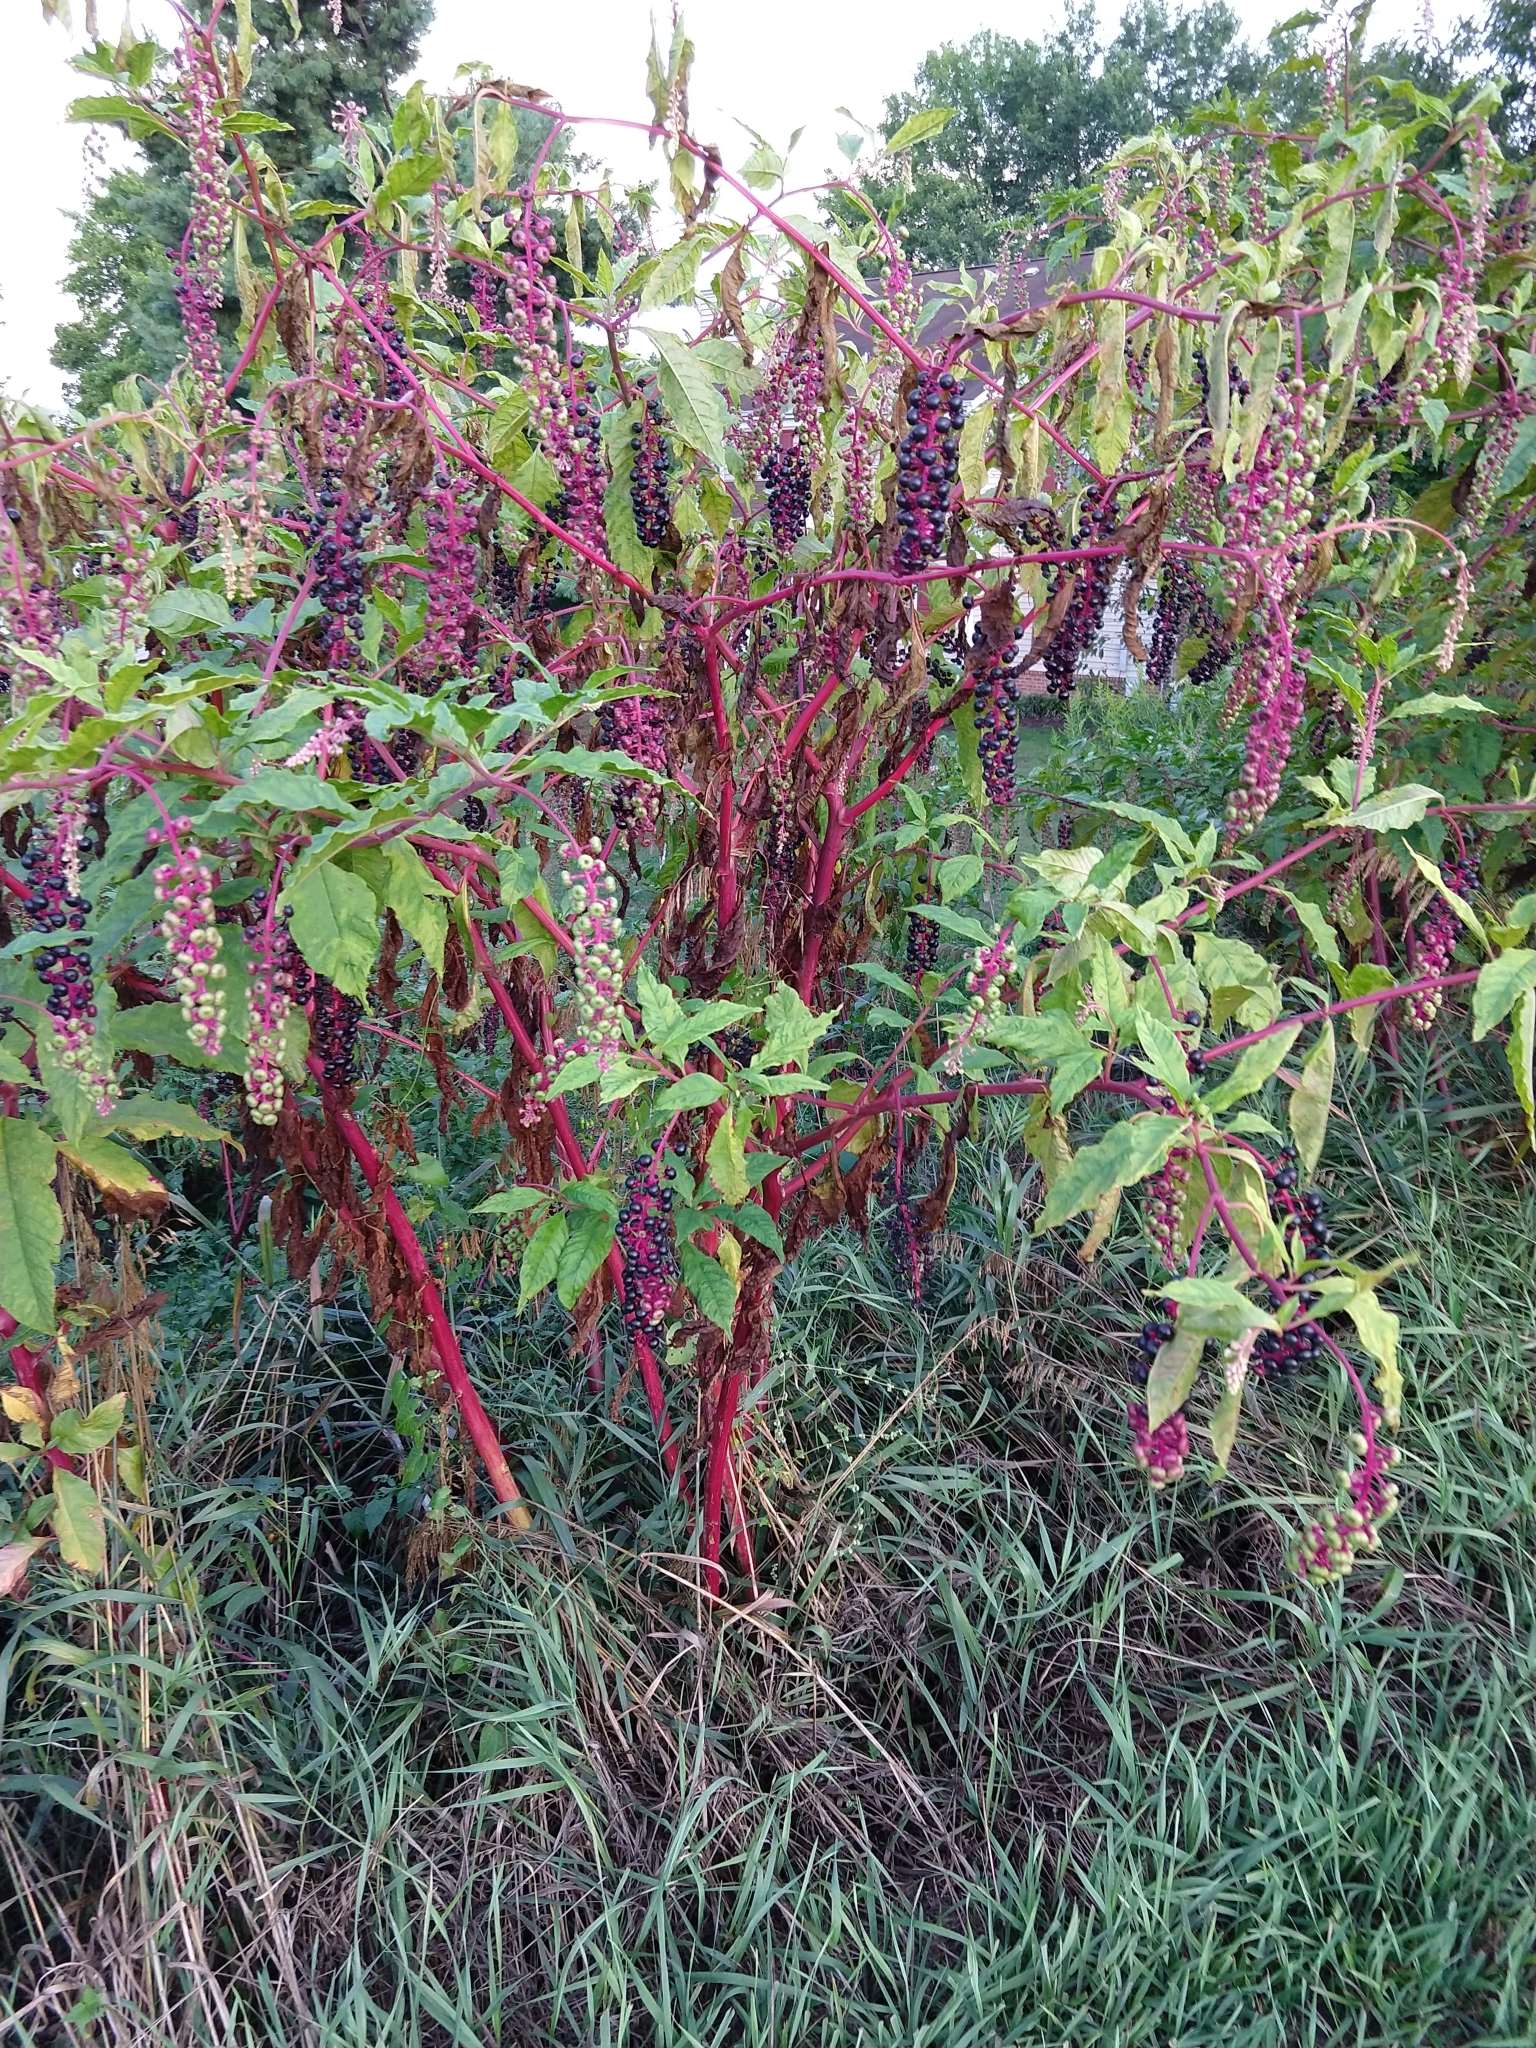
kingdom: Plantae
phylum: Tracheophyta
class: Magnoliopsida
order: Caryophyllales
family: Phytolaccaceae
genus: Phytolacca
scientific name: Phytolacca americana
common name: American pokeweed
